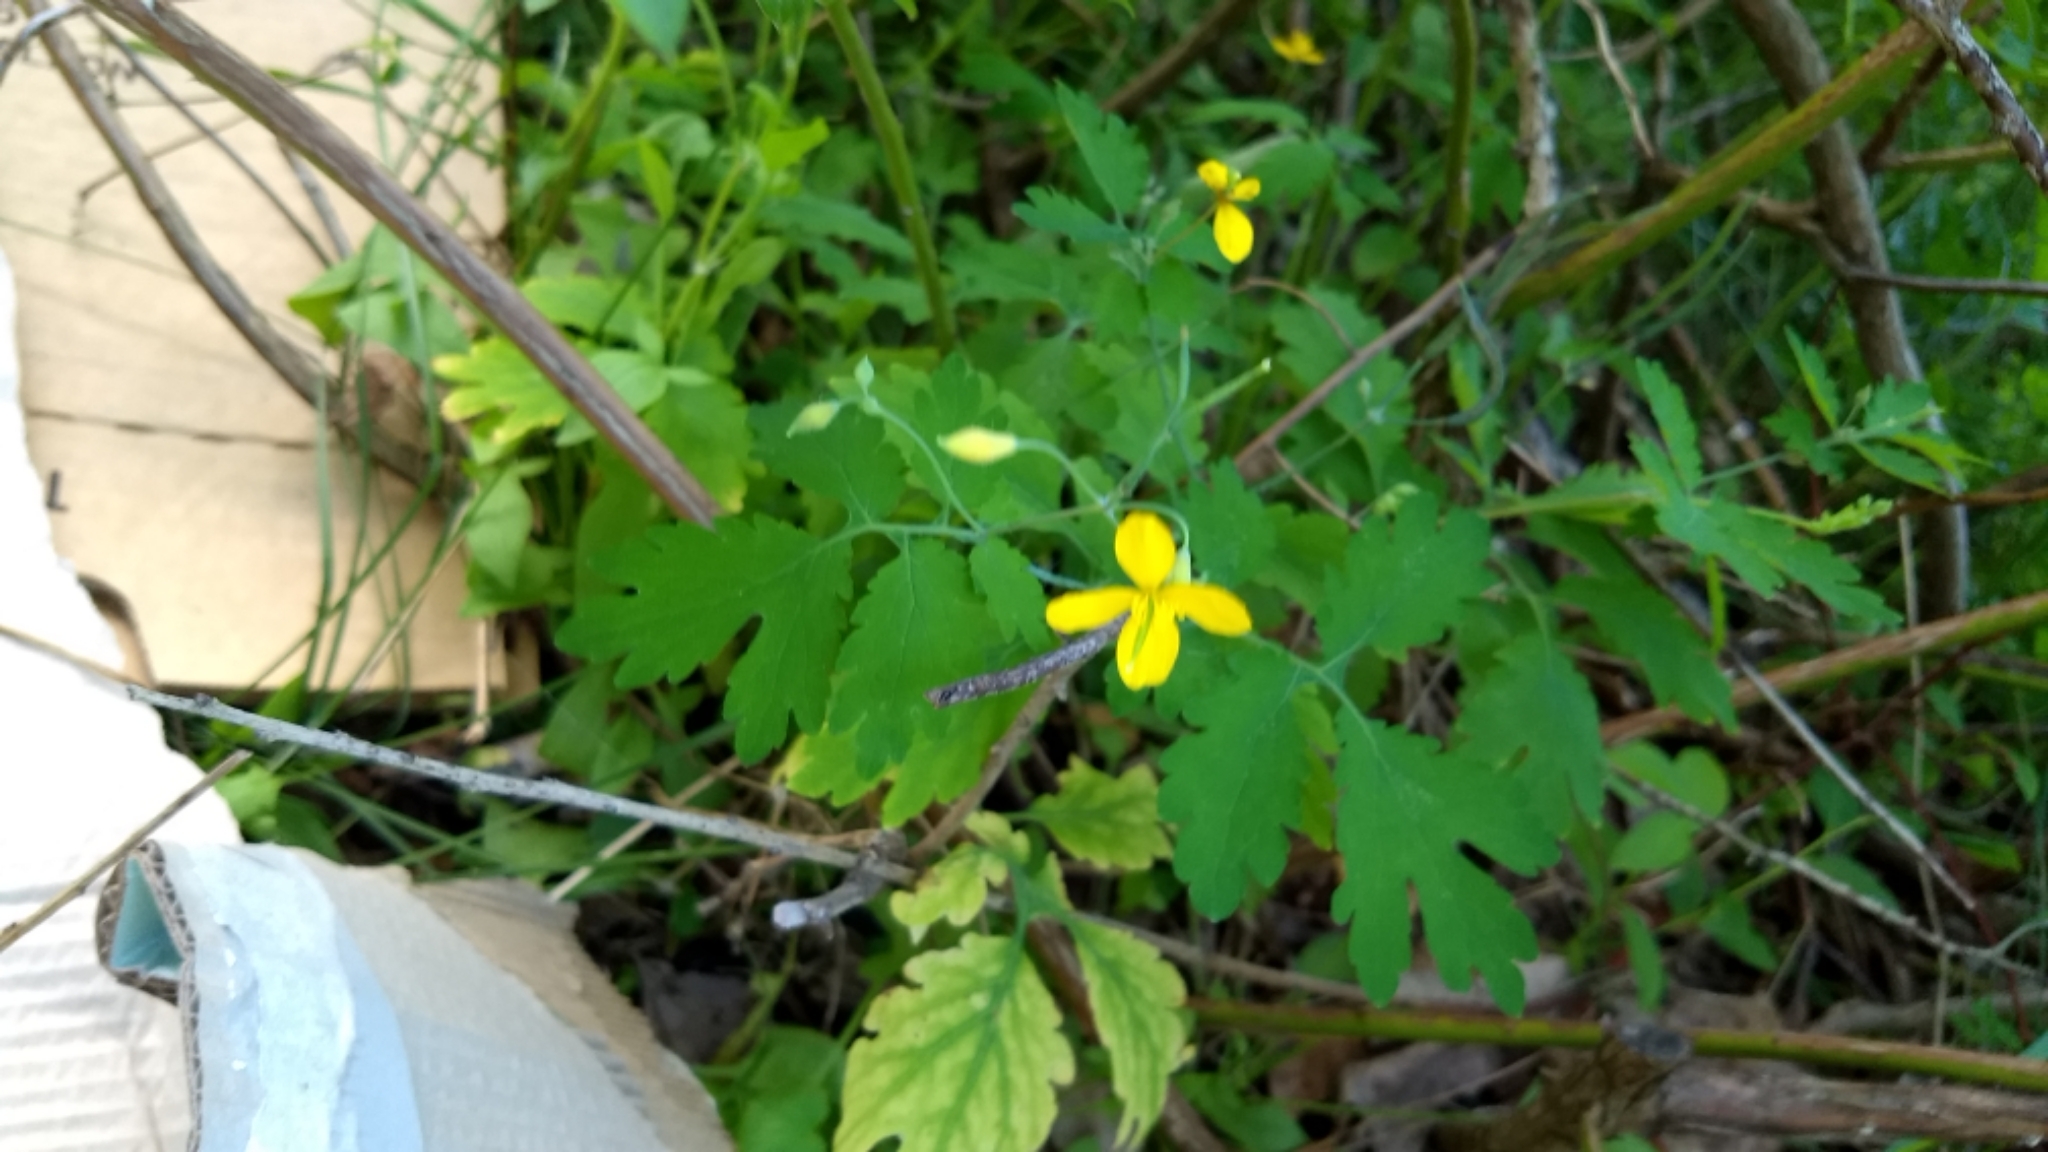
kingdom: Plantae
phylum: Tracheophyta
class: Magnoliopsida
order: Ranunculales
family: Papaveraceae
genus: Chelidonium
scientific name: Chelidonium majus
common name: Greater celandine
